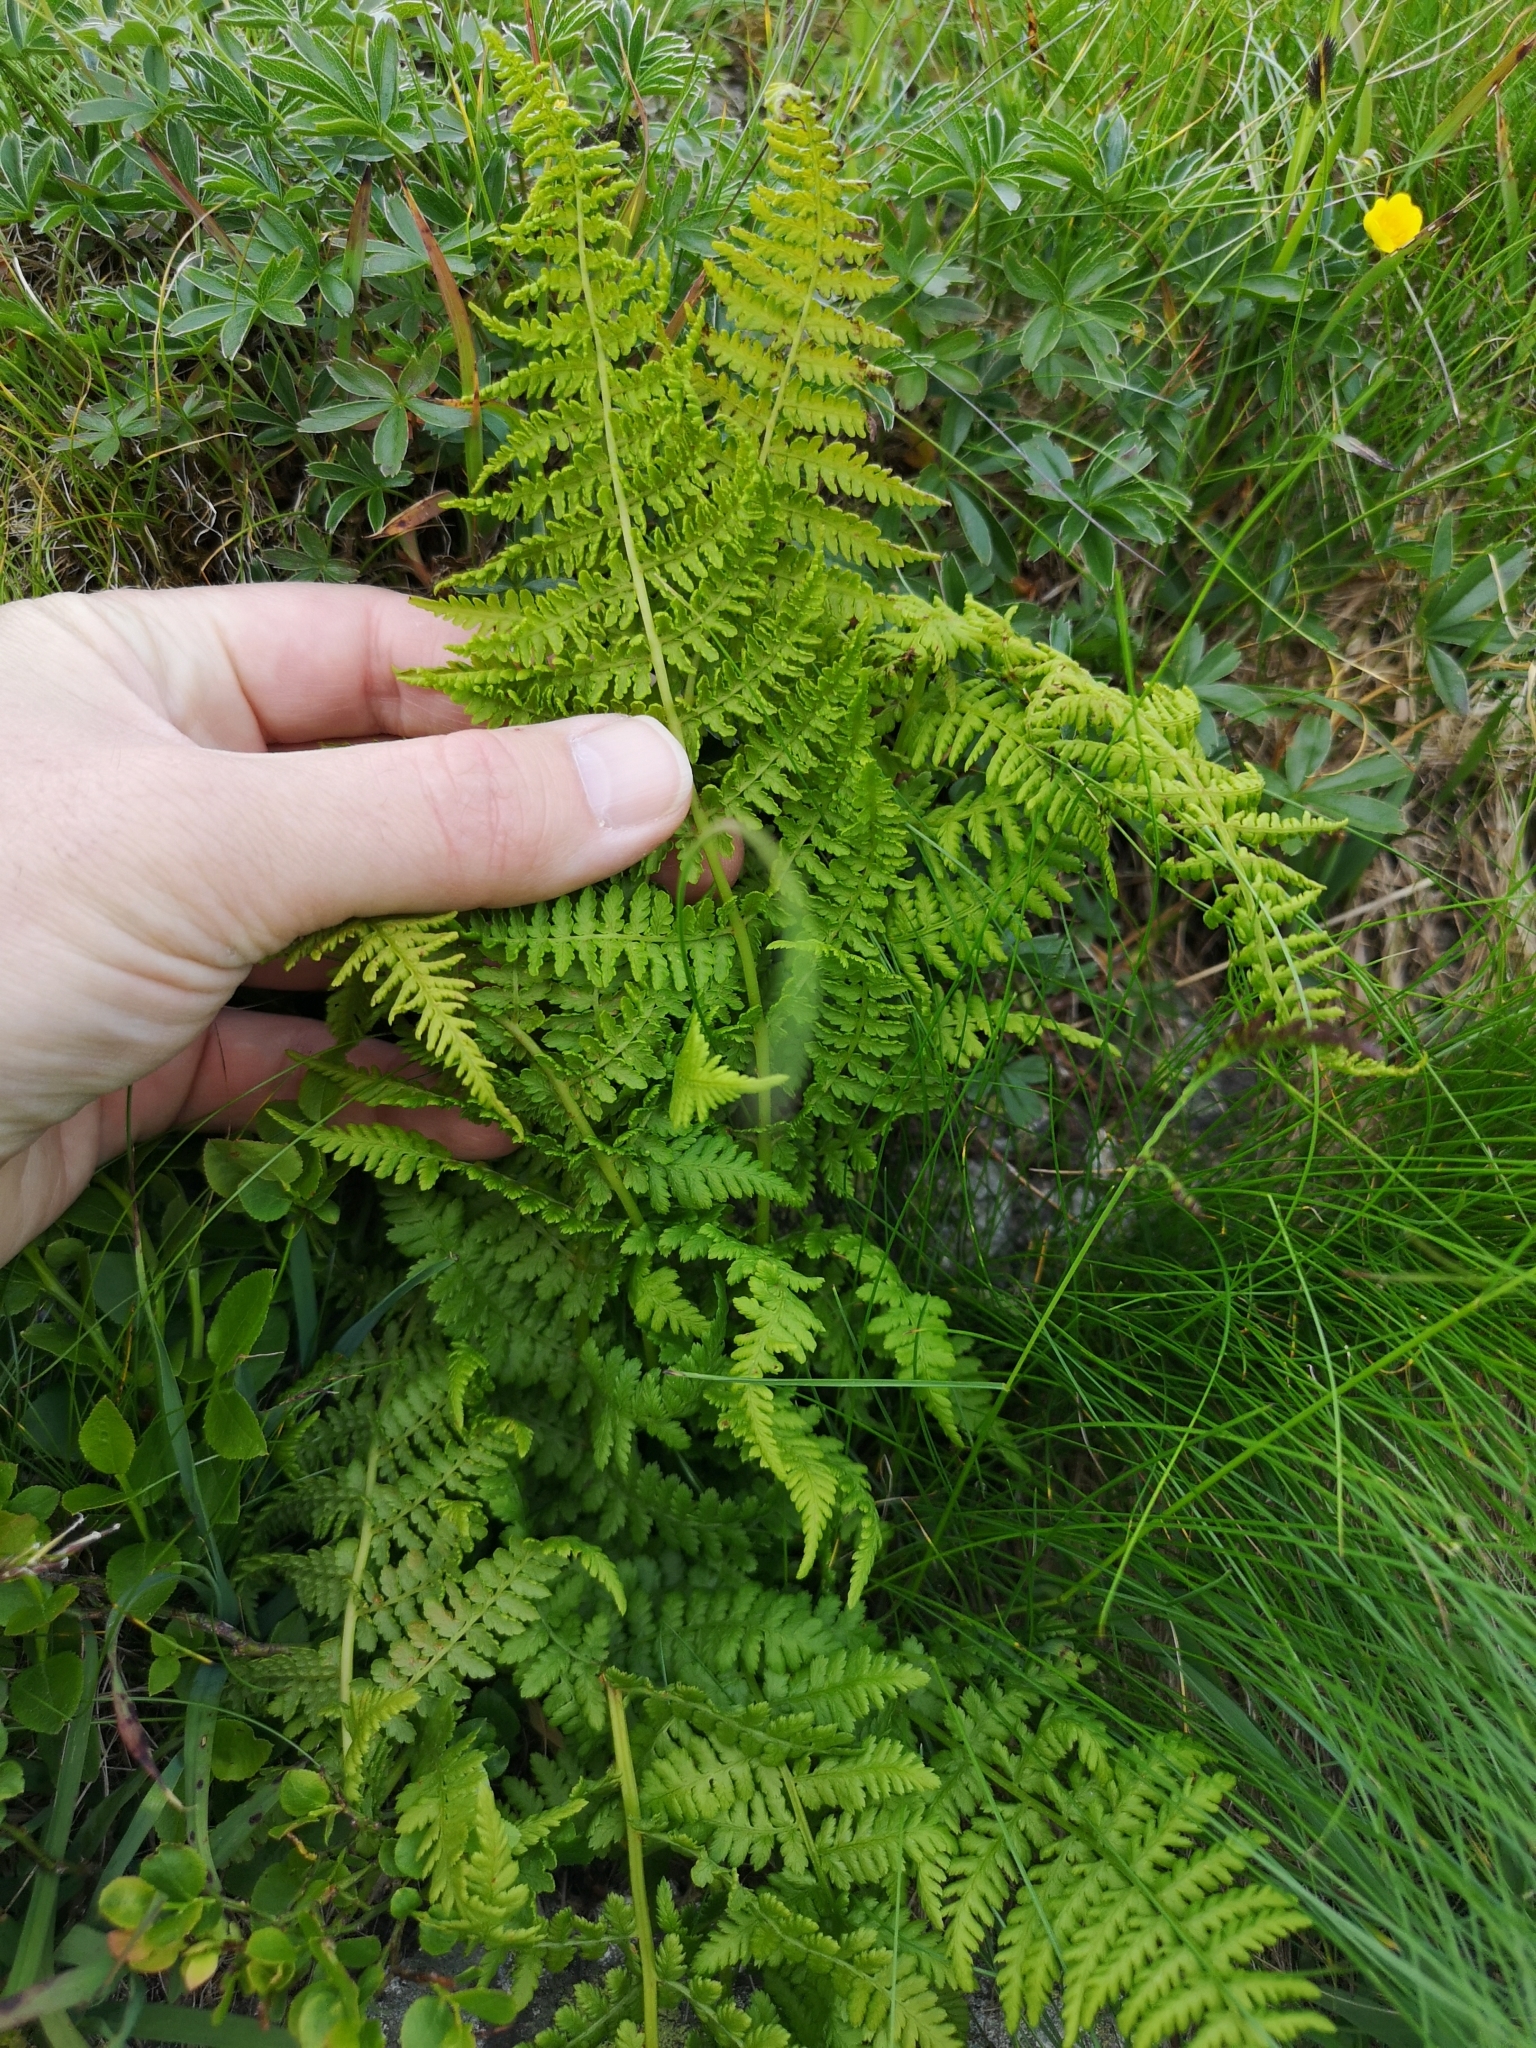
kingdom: Plantae
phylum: Tracheophyta
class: Polypodiopsida
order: Polypodiales
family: Athyriaceae
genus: Pseudathyrium
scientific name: Pseudathyrium alpestre
